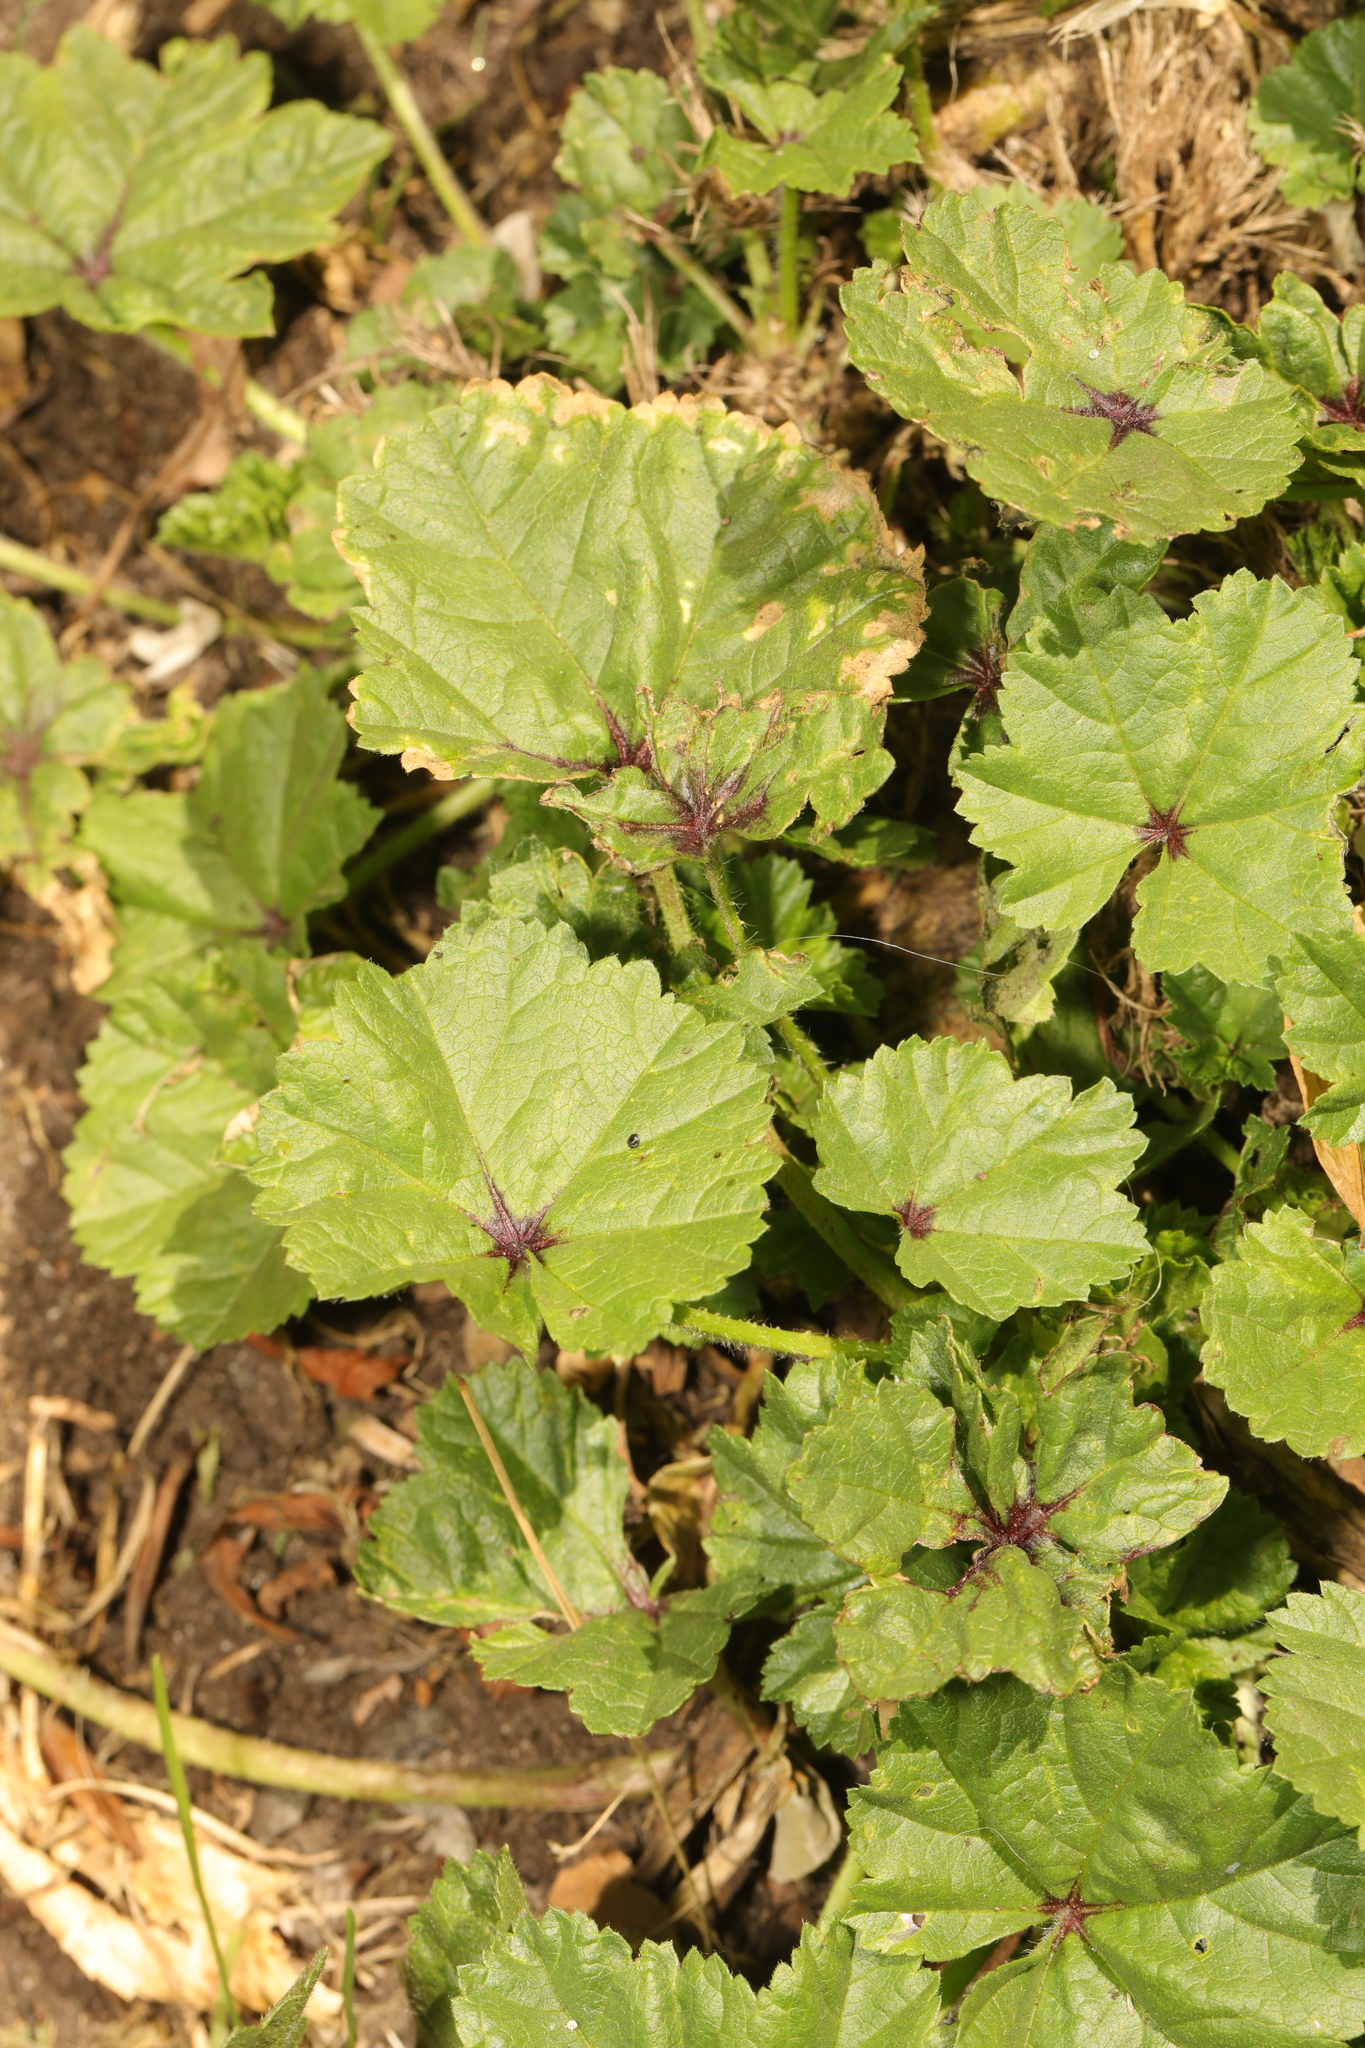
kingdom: Plantae
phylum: Tracheophyta
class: Magnoliopsida
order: Malvales
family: Malvaceae
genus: Malva
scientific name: Malva sylvestris
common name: Common mallow
